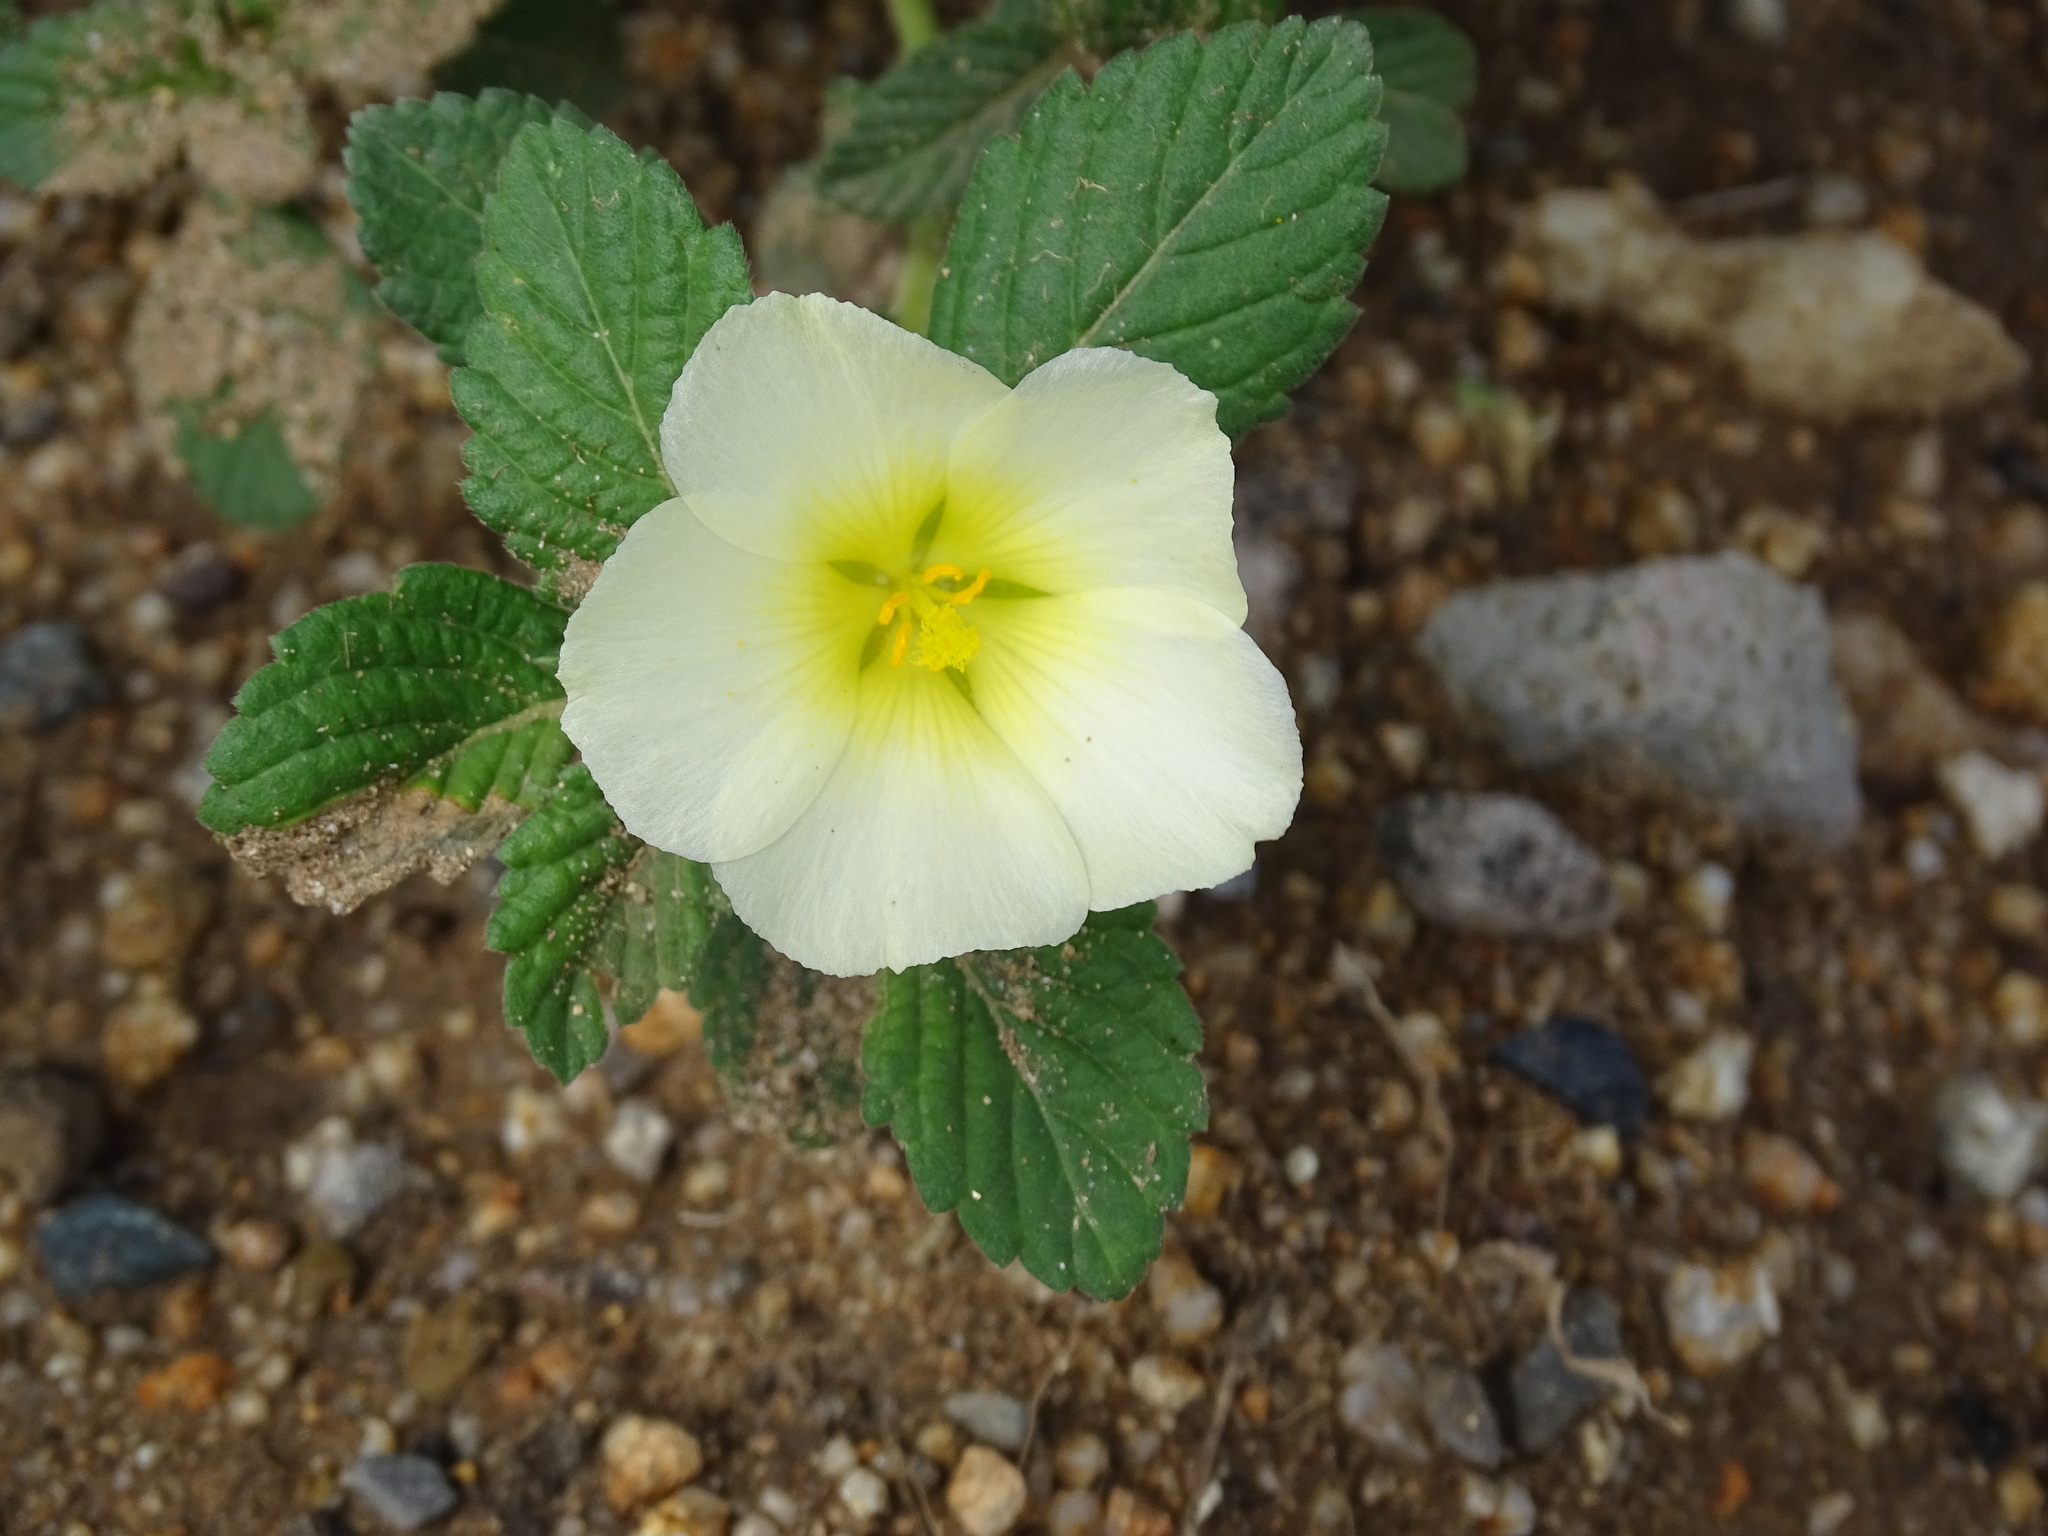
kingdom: Plantae
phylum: Tracheophyta
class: Magnoliopsida
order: Malpighiales
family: Turneraceae
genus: Turnera
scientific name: Turnera velutina
